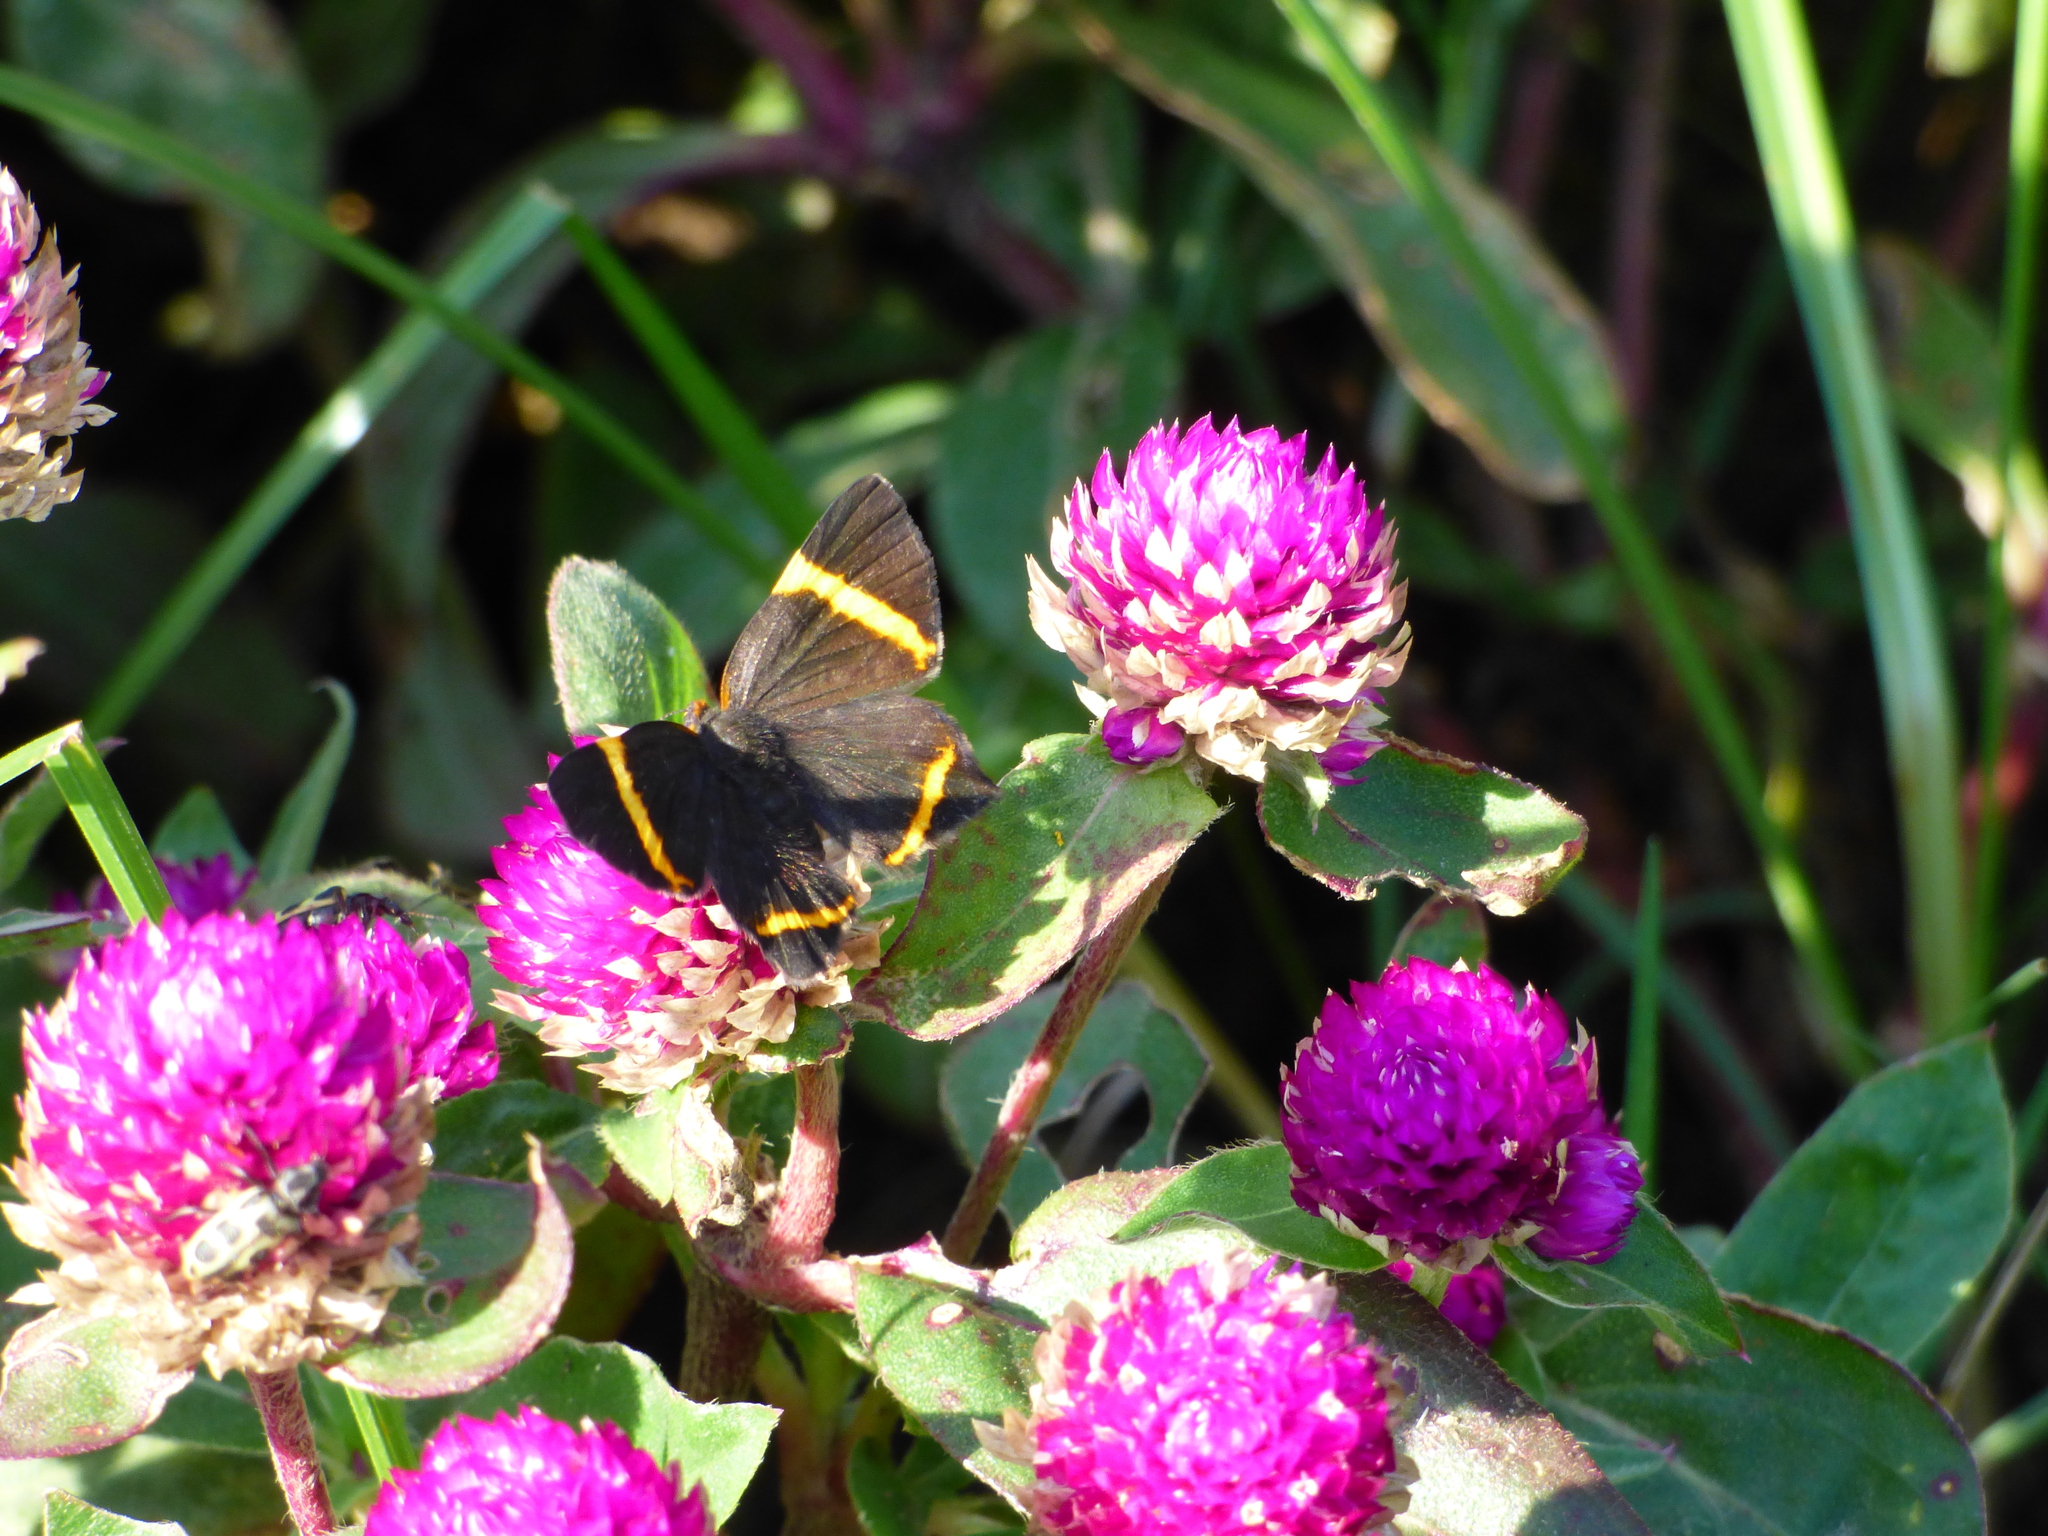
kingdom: Animalia
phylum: Arthropoda
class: Insecta
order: Lepidoptera
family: Riodinidae
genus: Riodina
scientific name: Riodina lysippoides
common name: Little dancer metalmark
